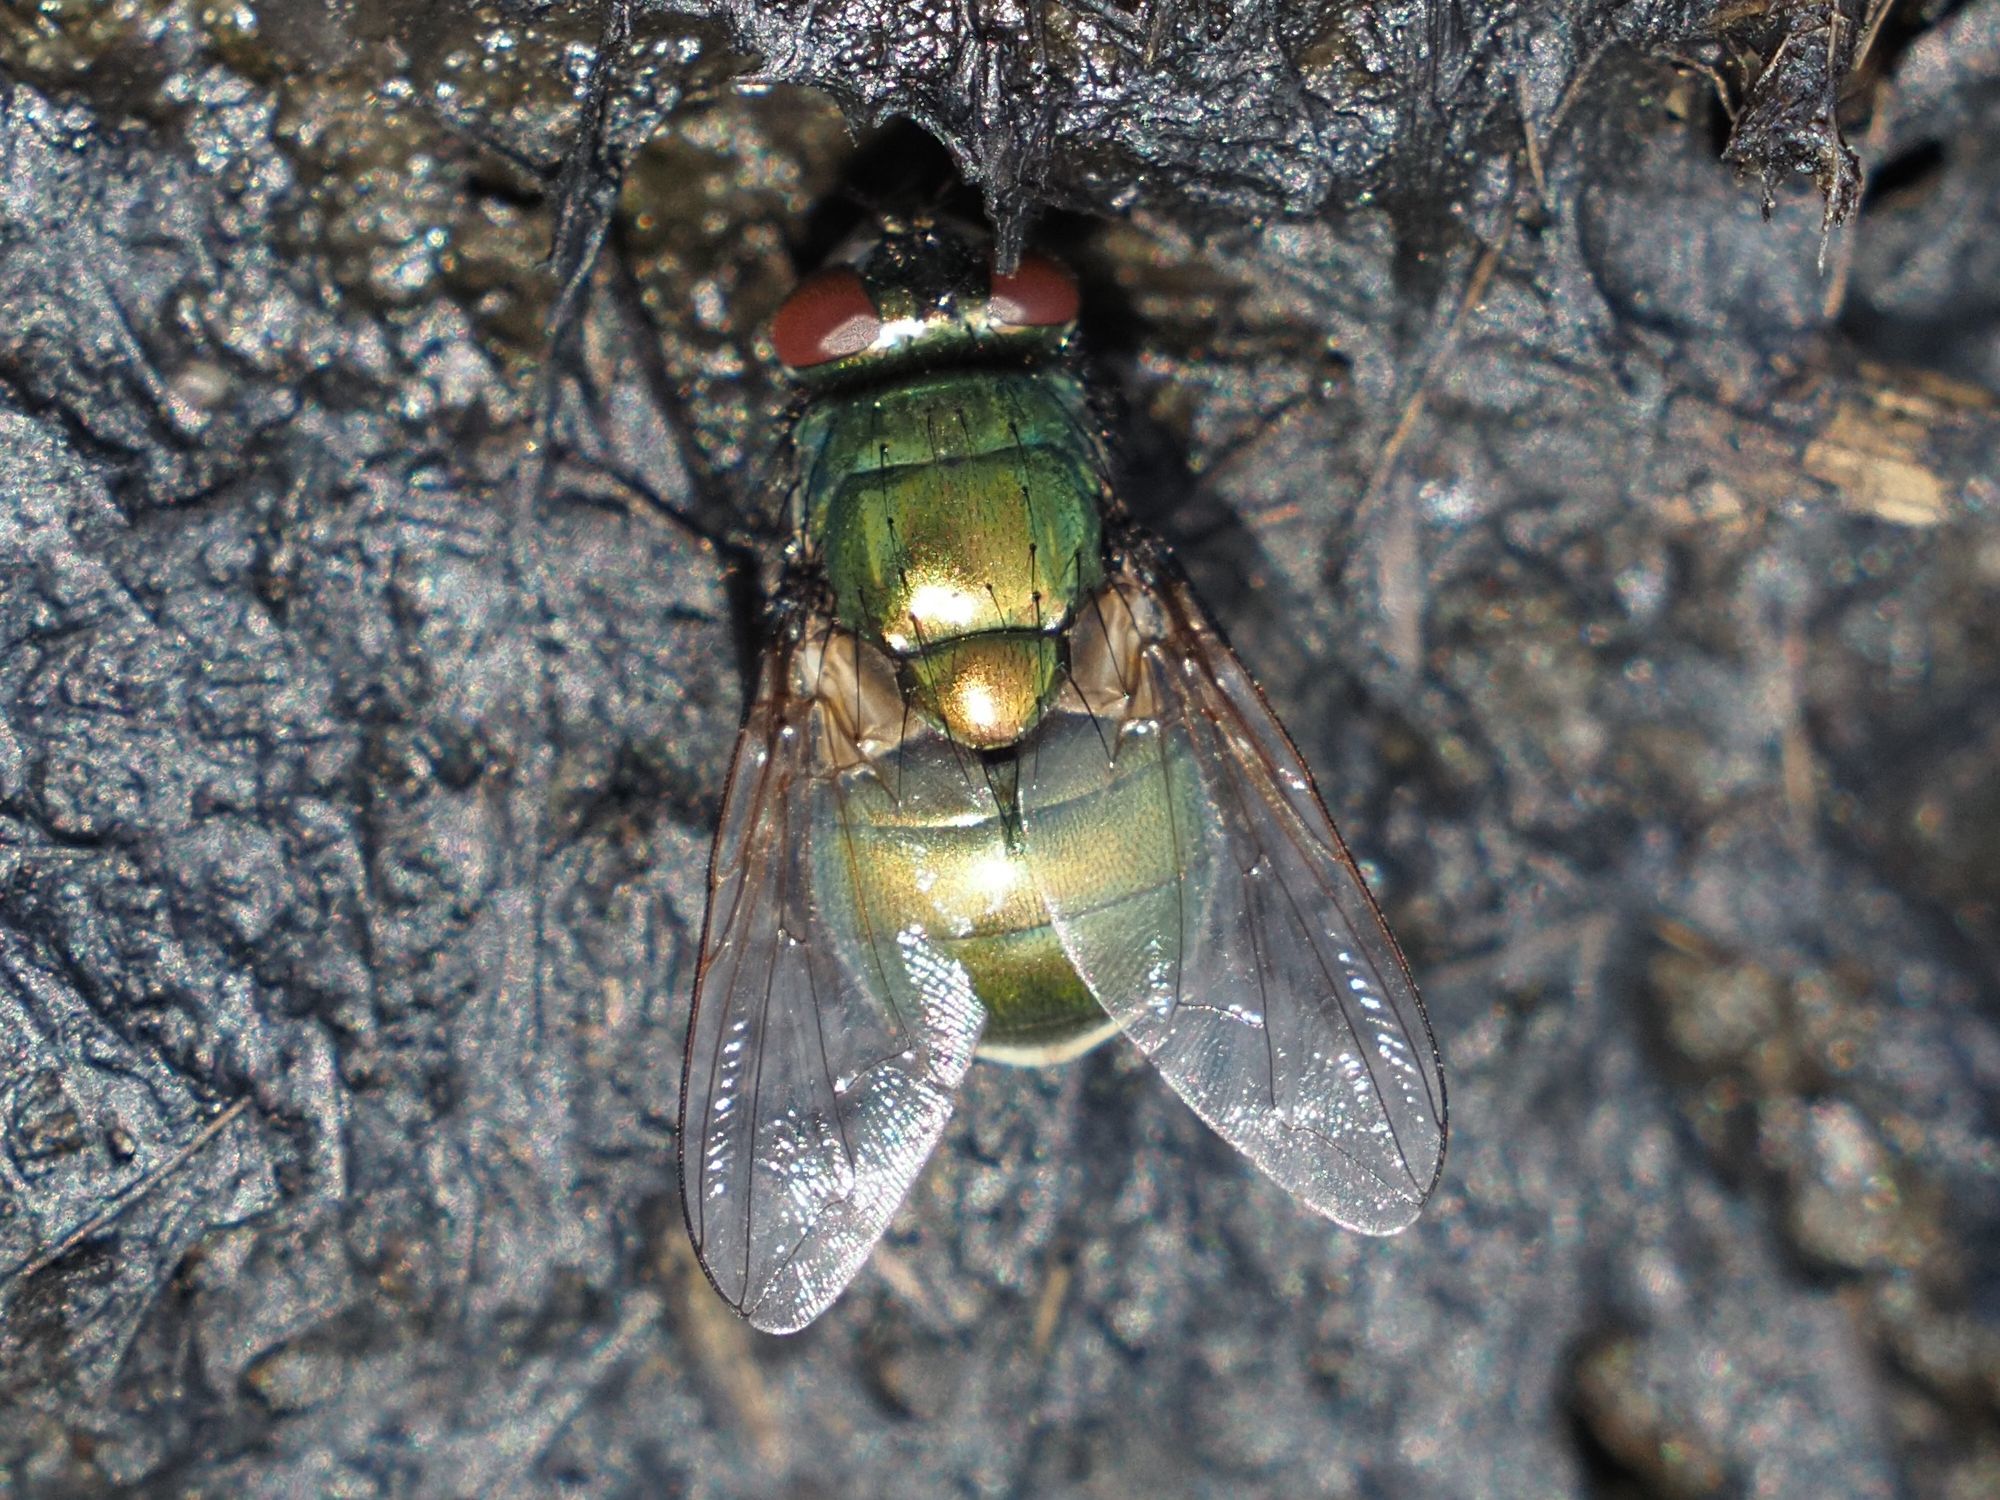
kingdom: Animalia
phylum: Arthropoda
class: Insecta
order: Diptera
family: Muscidae
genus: Neomyia
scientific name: Neomyia cornicina
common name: House fly
